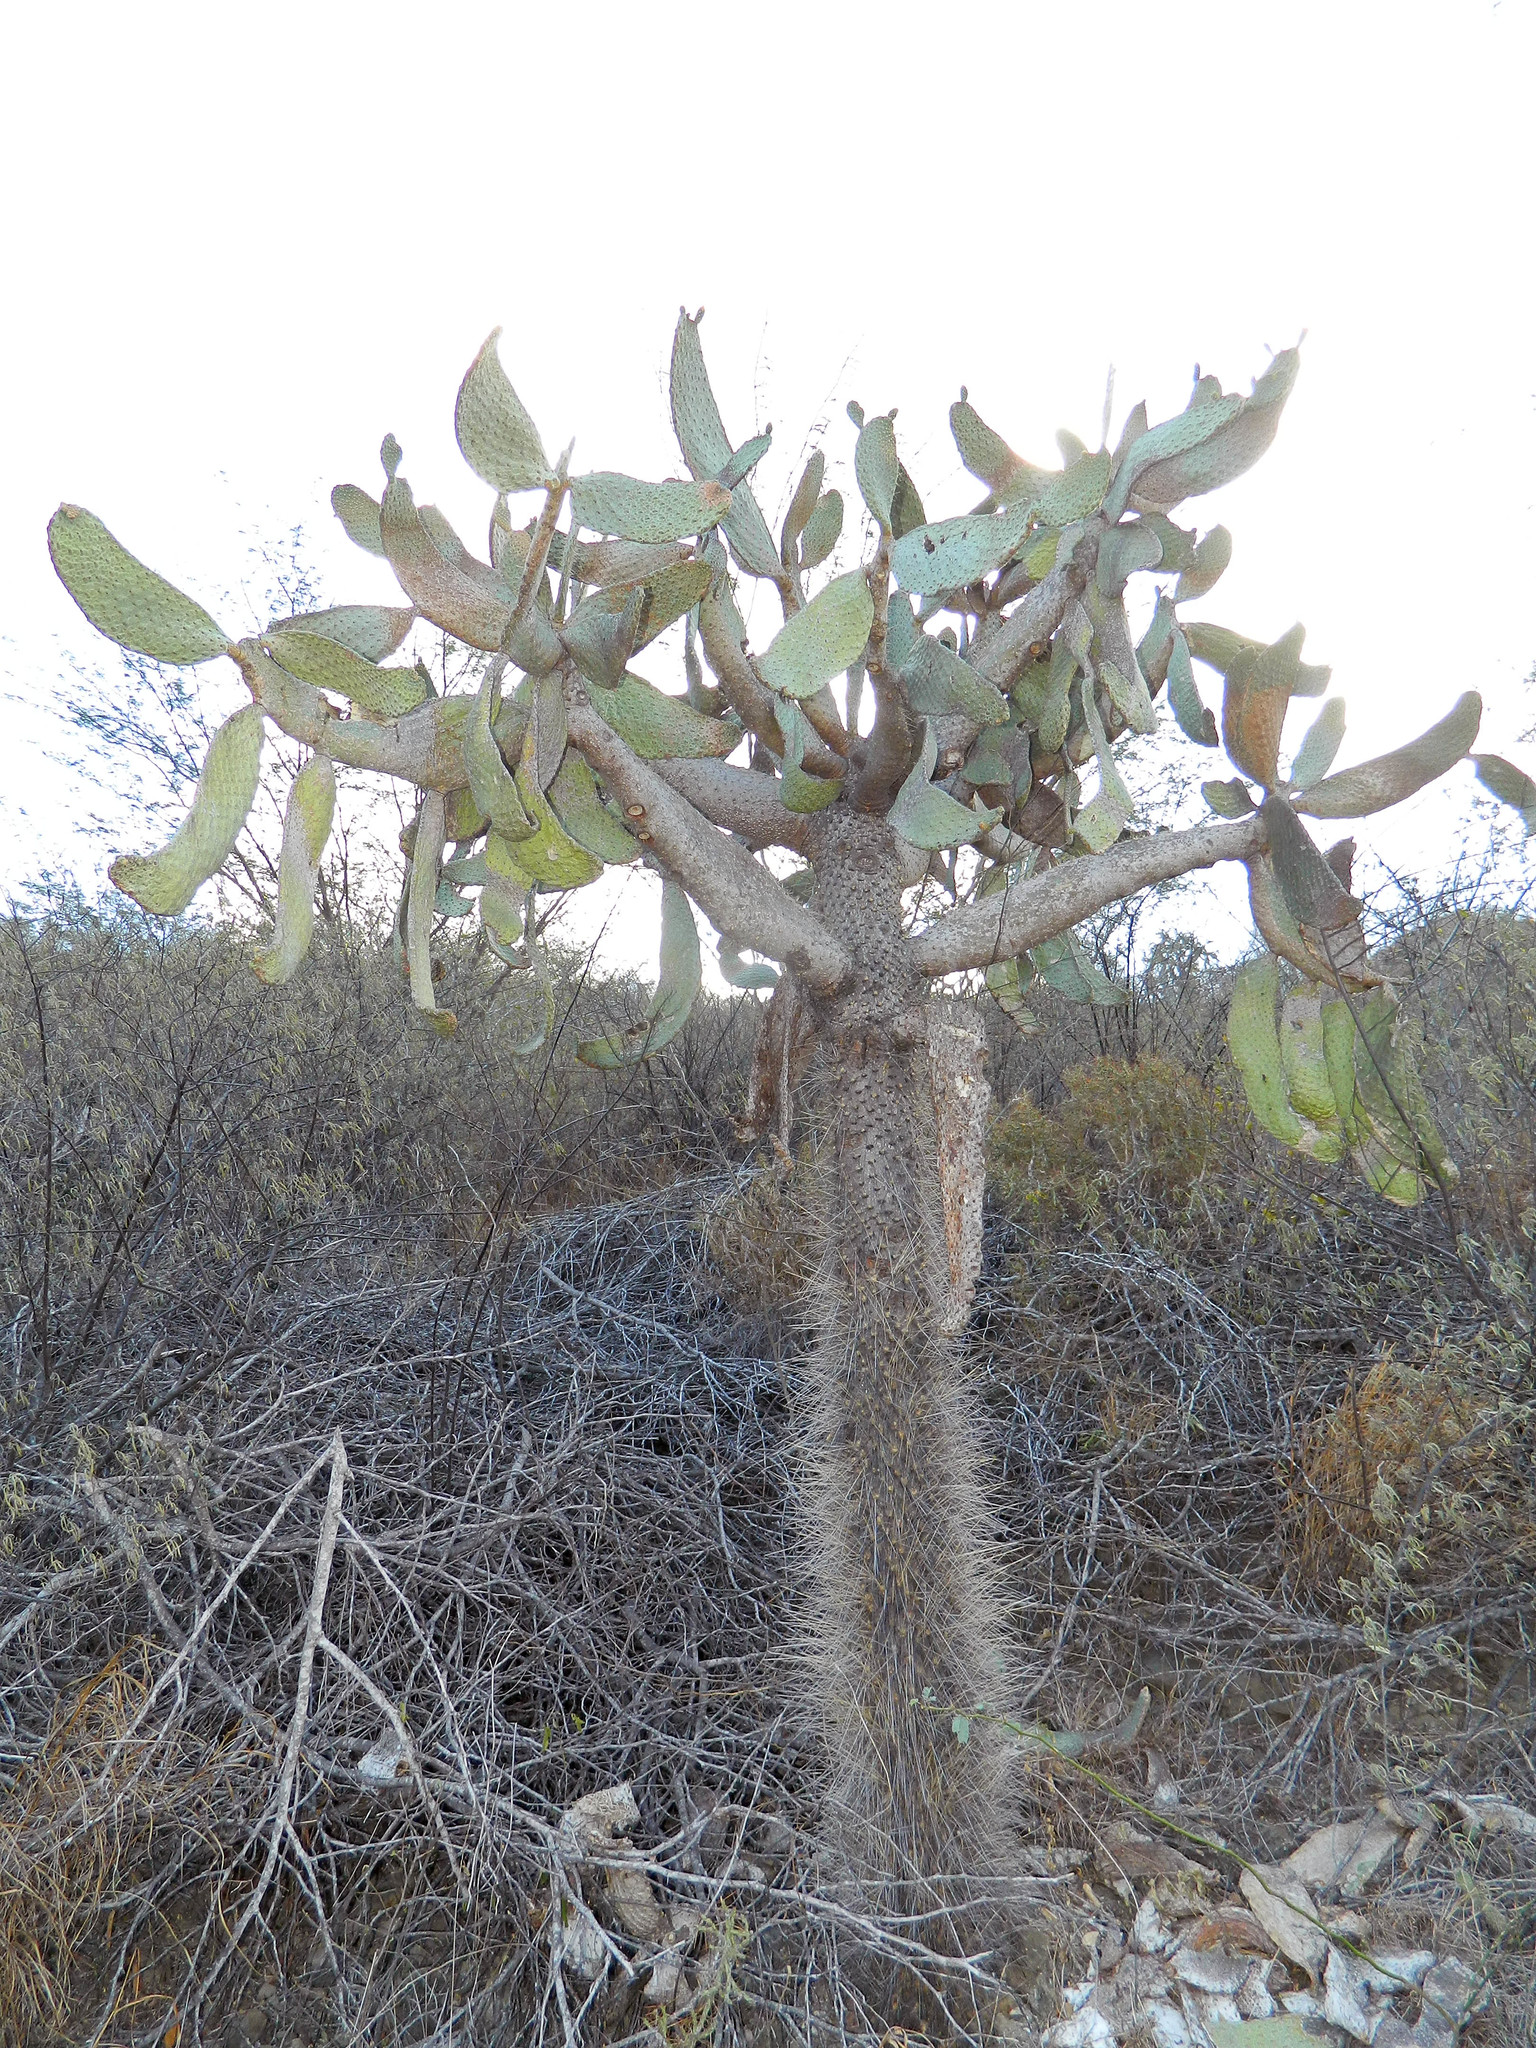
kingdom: Plantae
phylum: Tracheophyta
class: Magnoliopsida
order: Caryophyllales
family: Cactaceae
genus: Consolea
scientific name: Consolea moniliformis
